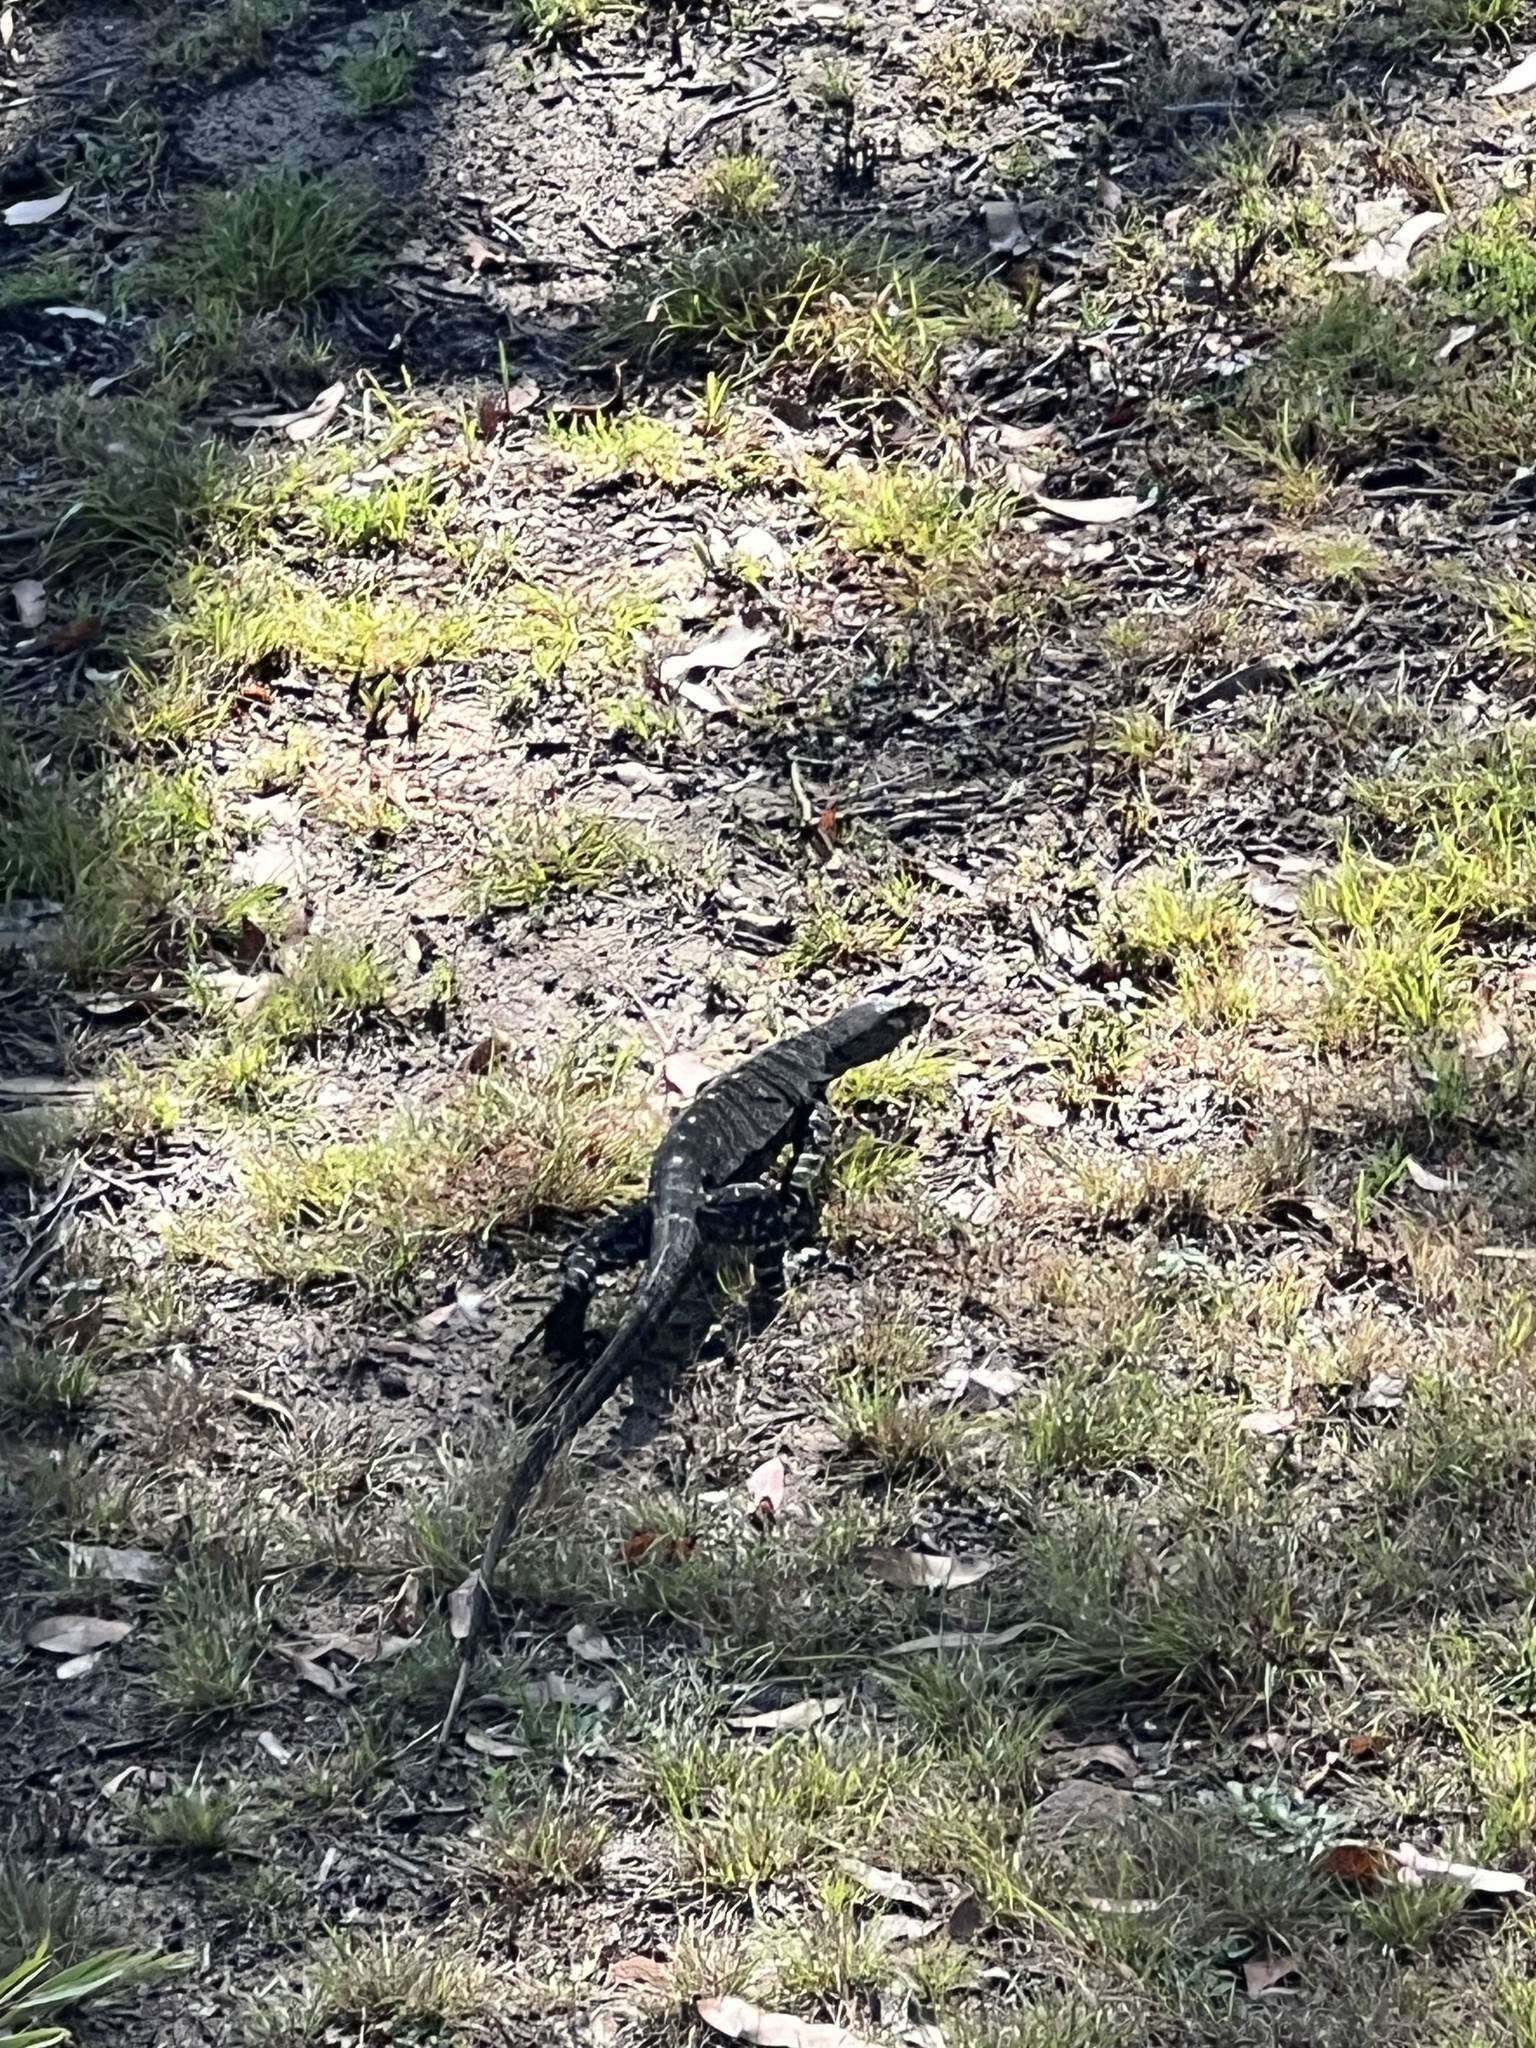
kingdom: Animalia
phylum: Chordata
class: Squamata
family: Varanidae
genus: Varanus
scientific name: Varanus varius
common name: Lace monitor
